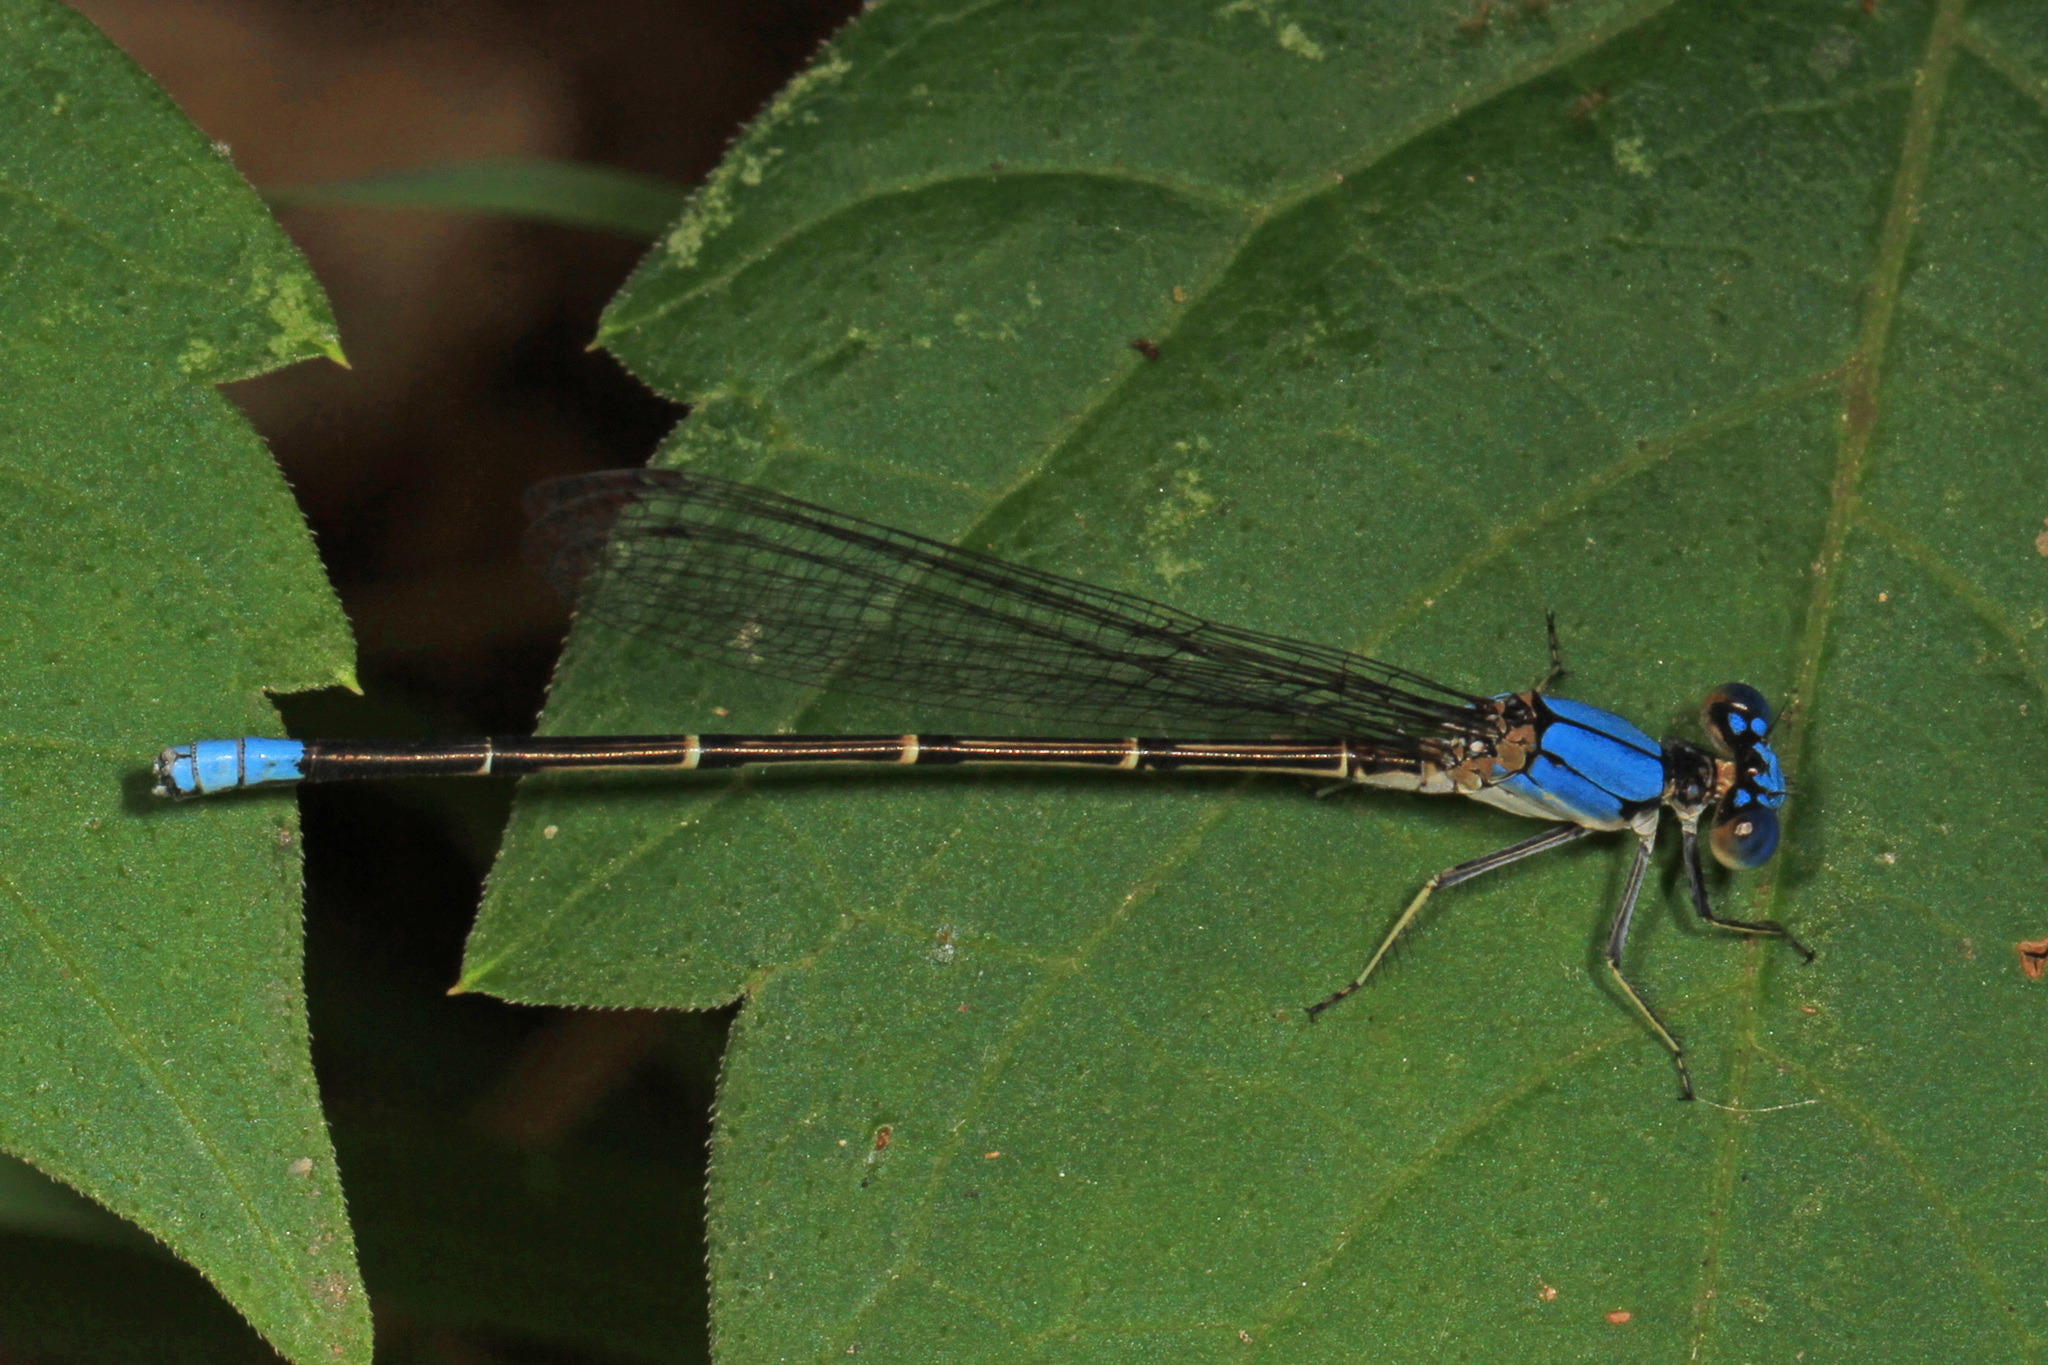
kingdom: Animalia
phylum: Arthropoda
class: Insecta
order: Odonata
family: Coenagrionidae
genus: Argia
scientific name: Argia apicalis
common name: Blue-fronted dancer
